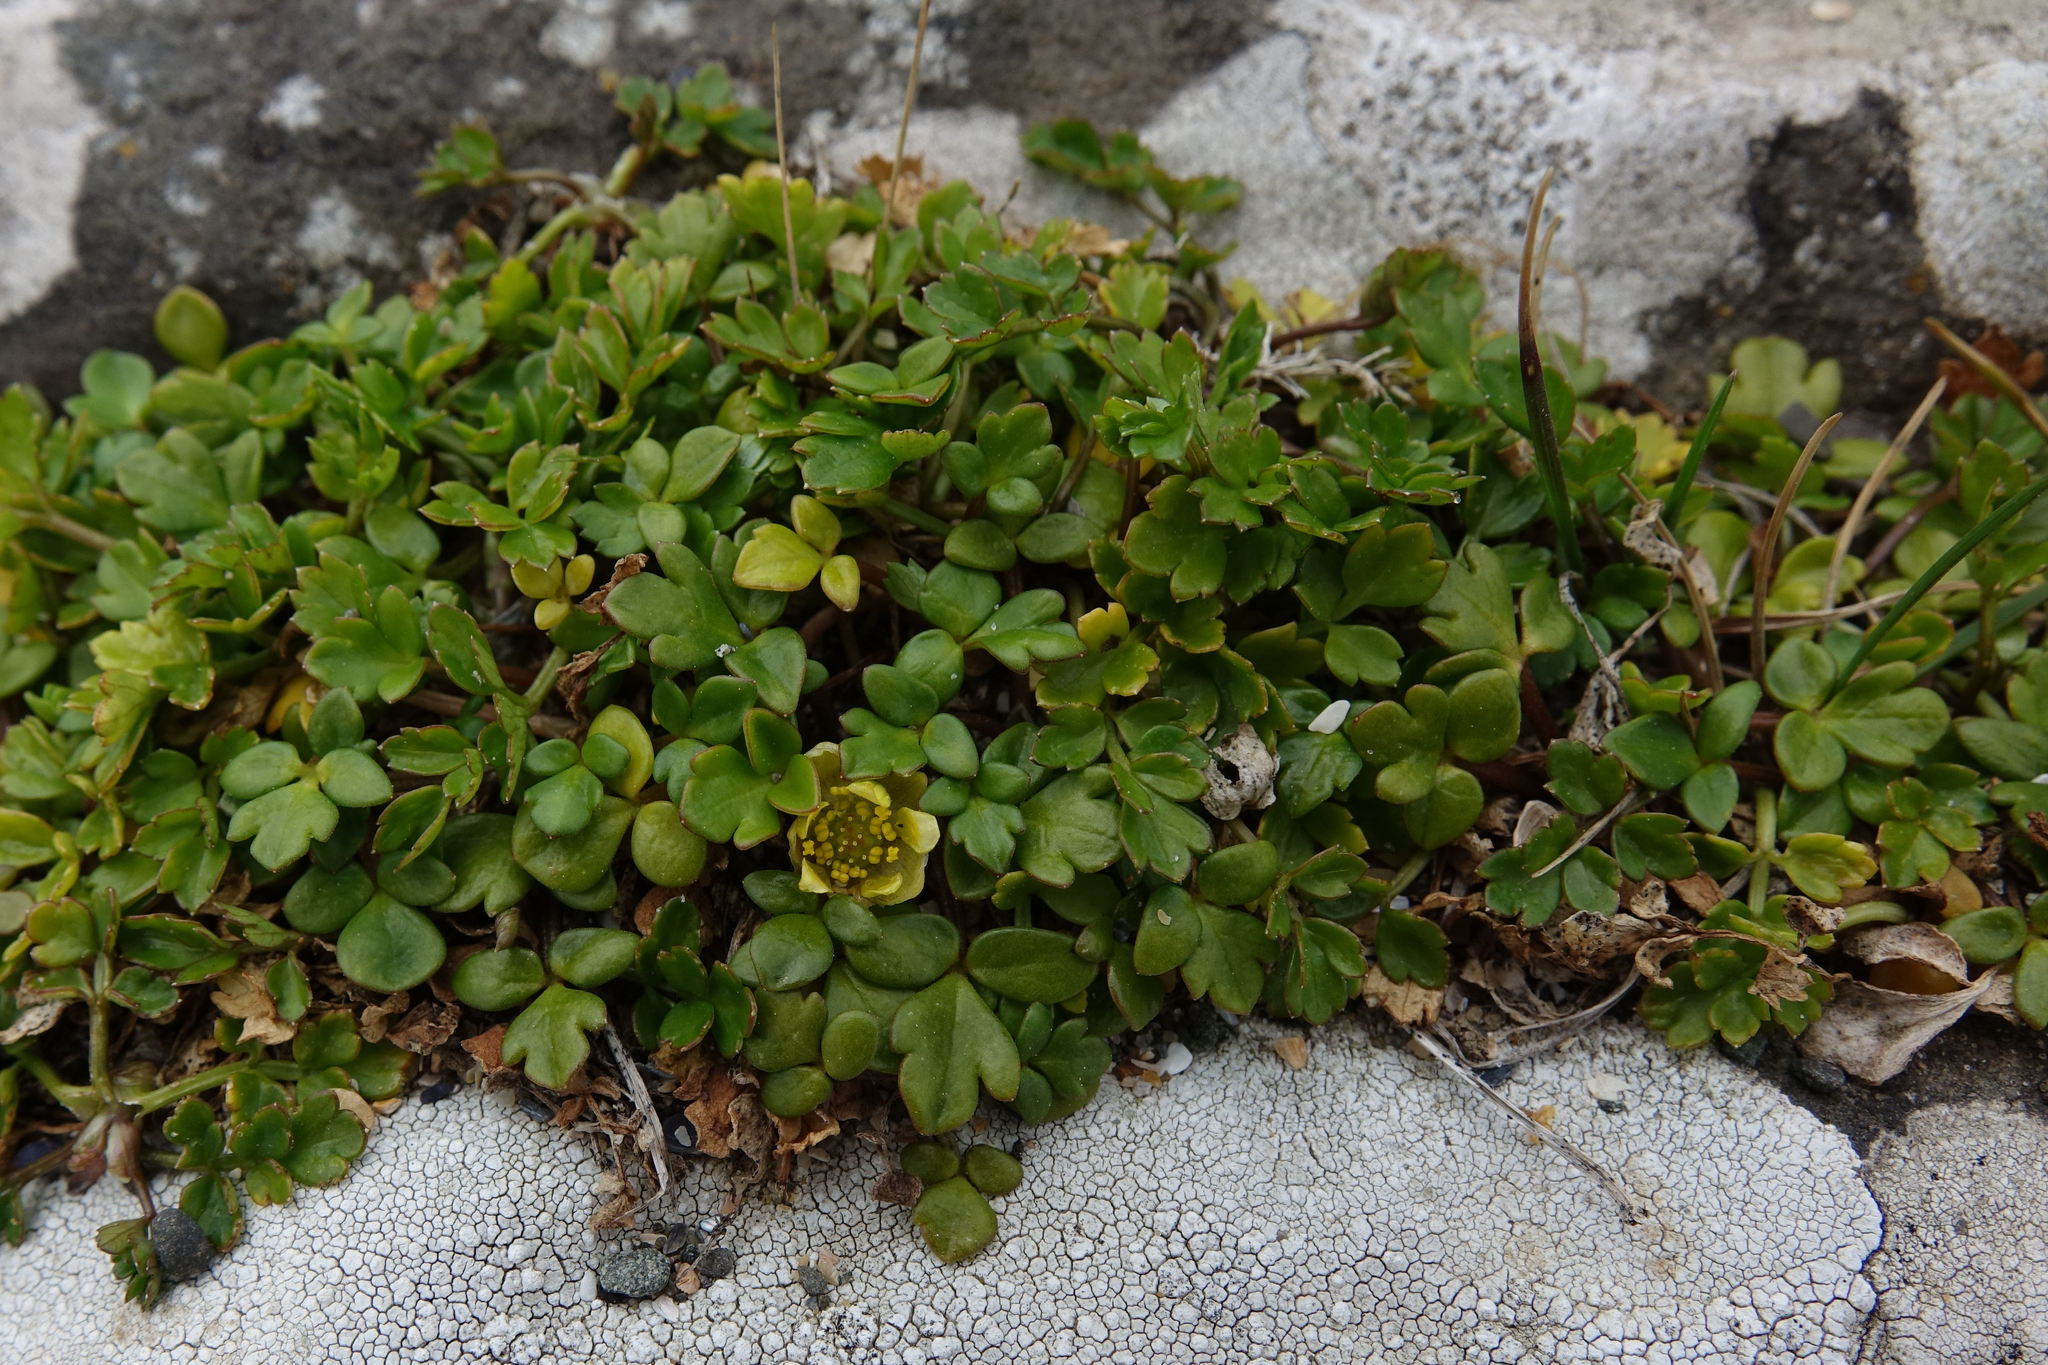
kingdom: Plantae
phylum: Tracheophyta
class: Magnoliopsida
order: Ranunculales
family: Ranunculaceae
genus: Ranunculus
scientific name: Ranunculus acaulis
